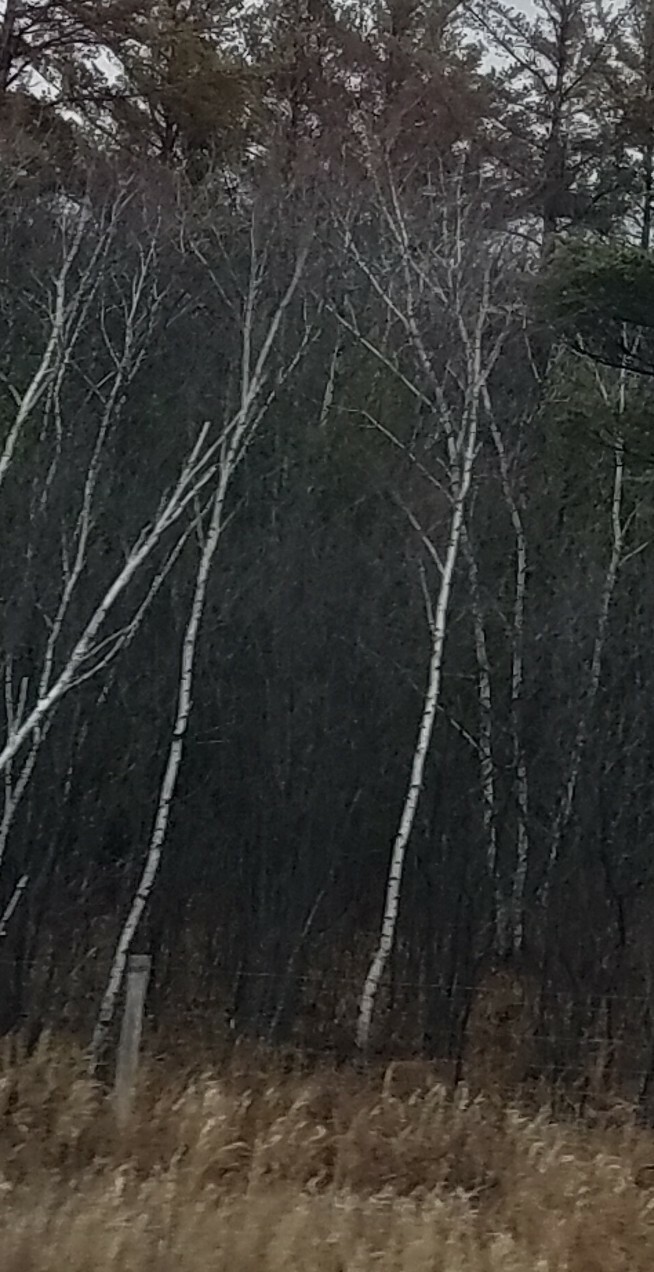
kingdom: Plantae
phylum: Tracheophyta
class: Magnoliopsida
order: Malpighiales
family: Salicaceae
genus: Populus
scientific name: Populus tremuloides
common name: Quaking aspen
